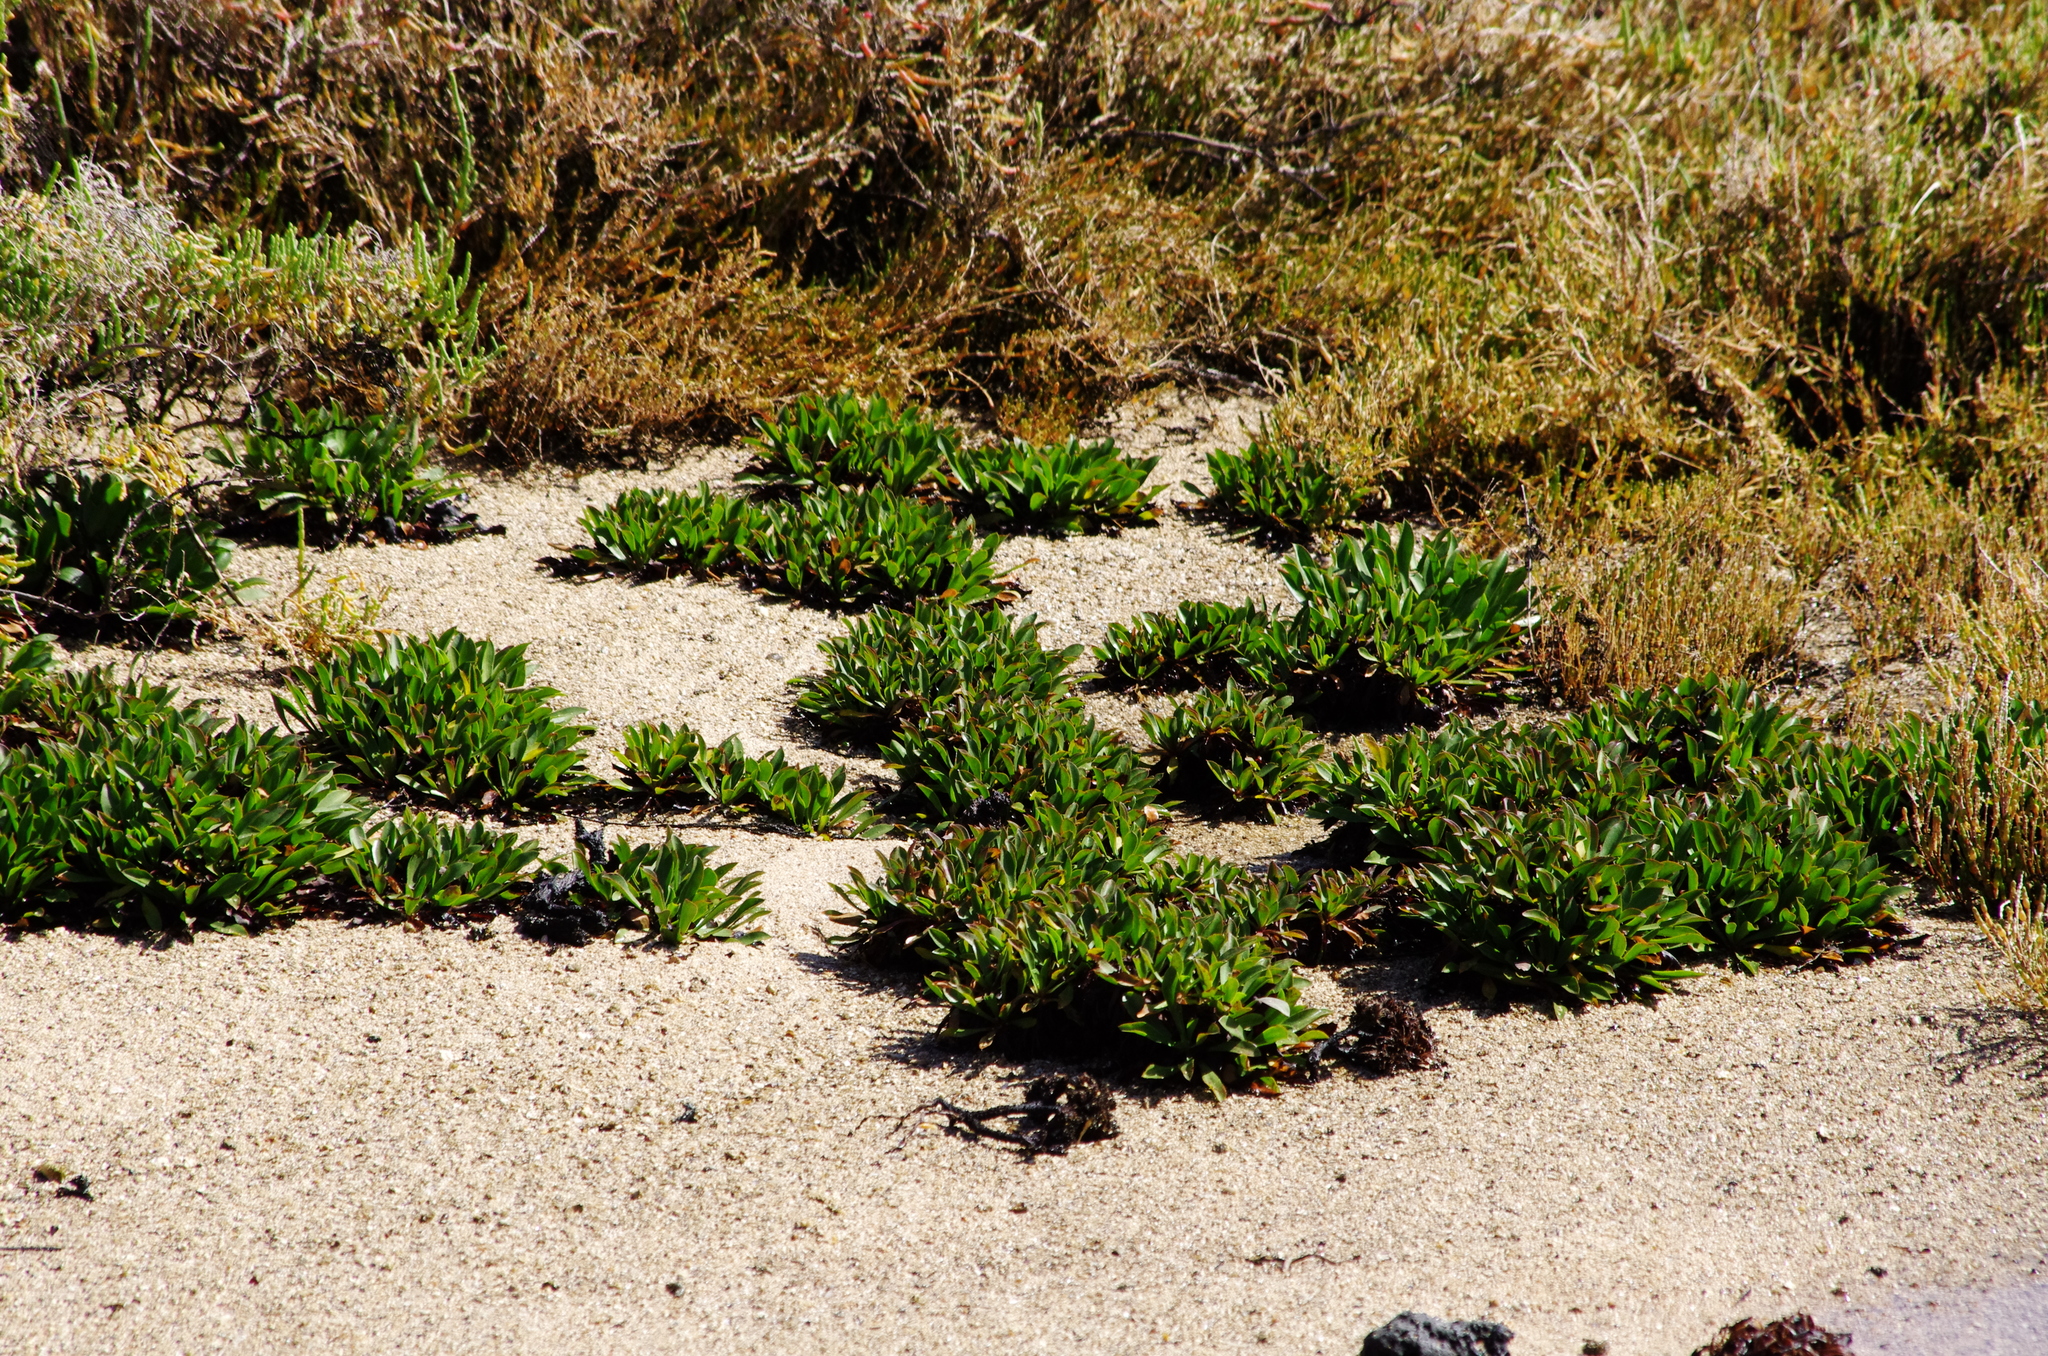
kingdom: Plantae
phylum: Tracheophyta
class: Magnoliopsida
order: Caryophyllales
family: Plumbaginaceae
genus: Limonium
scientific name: Limonium bollei
